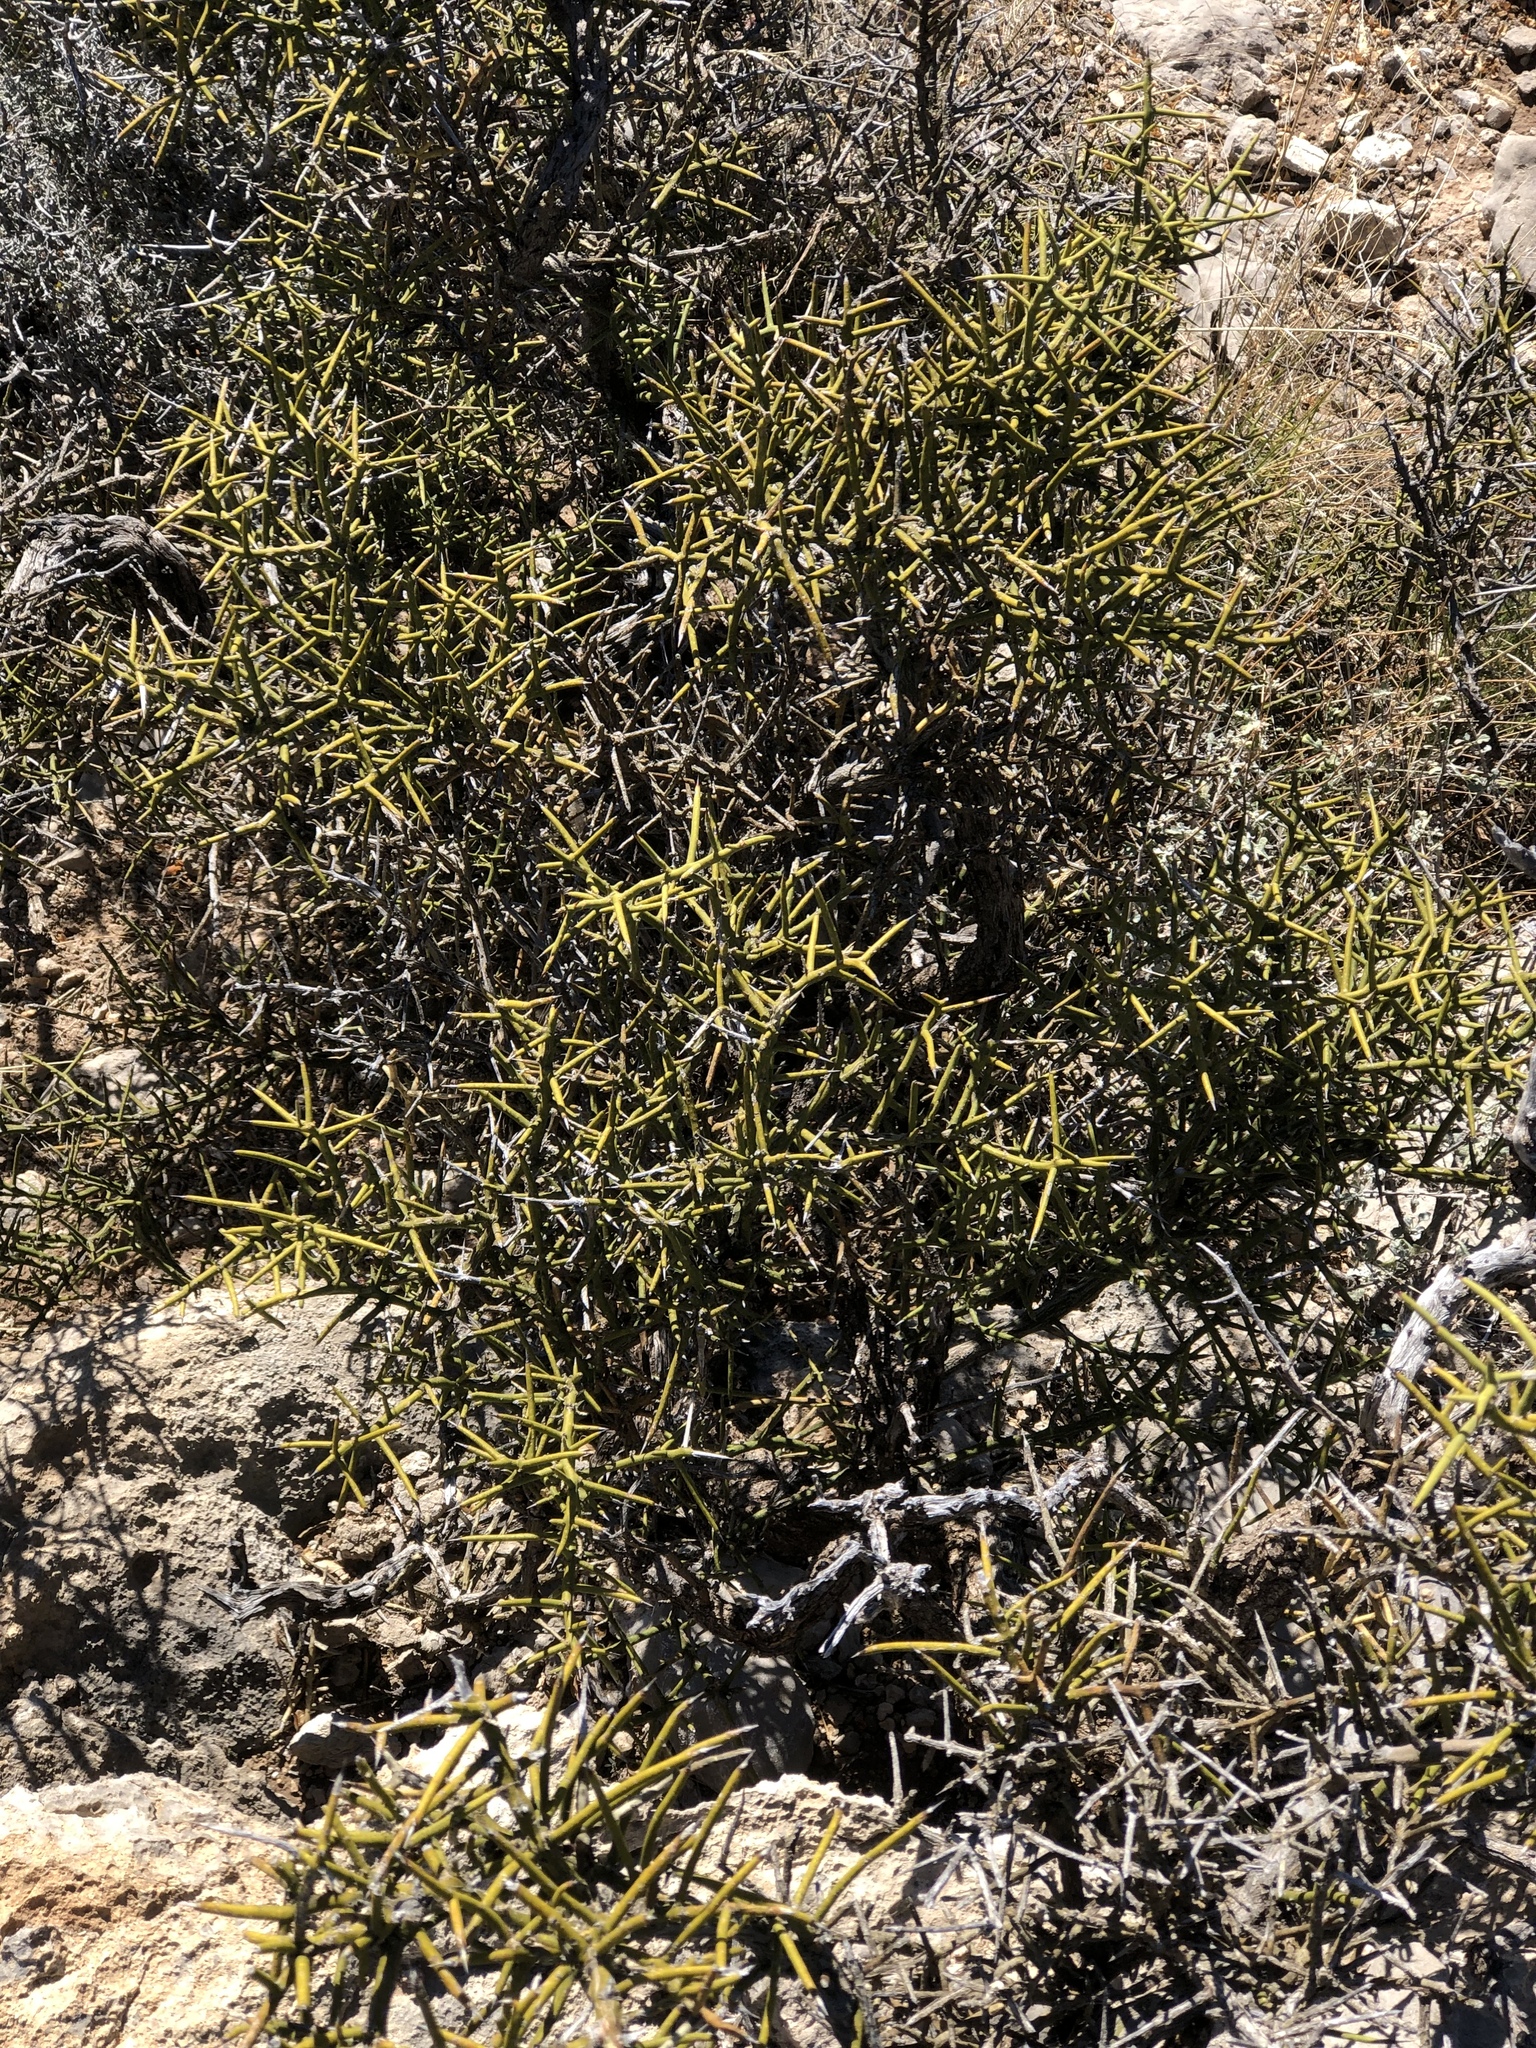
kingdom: Plantae
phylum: Tracheophyta
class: Magnoliopsida
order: Brassicales
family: Koeberliniaceae
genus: Koeberlinia
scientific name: Koeberlinia spinosa
